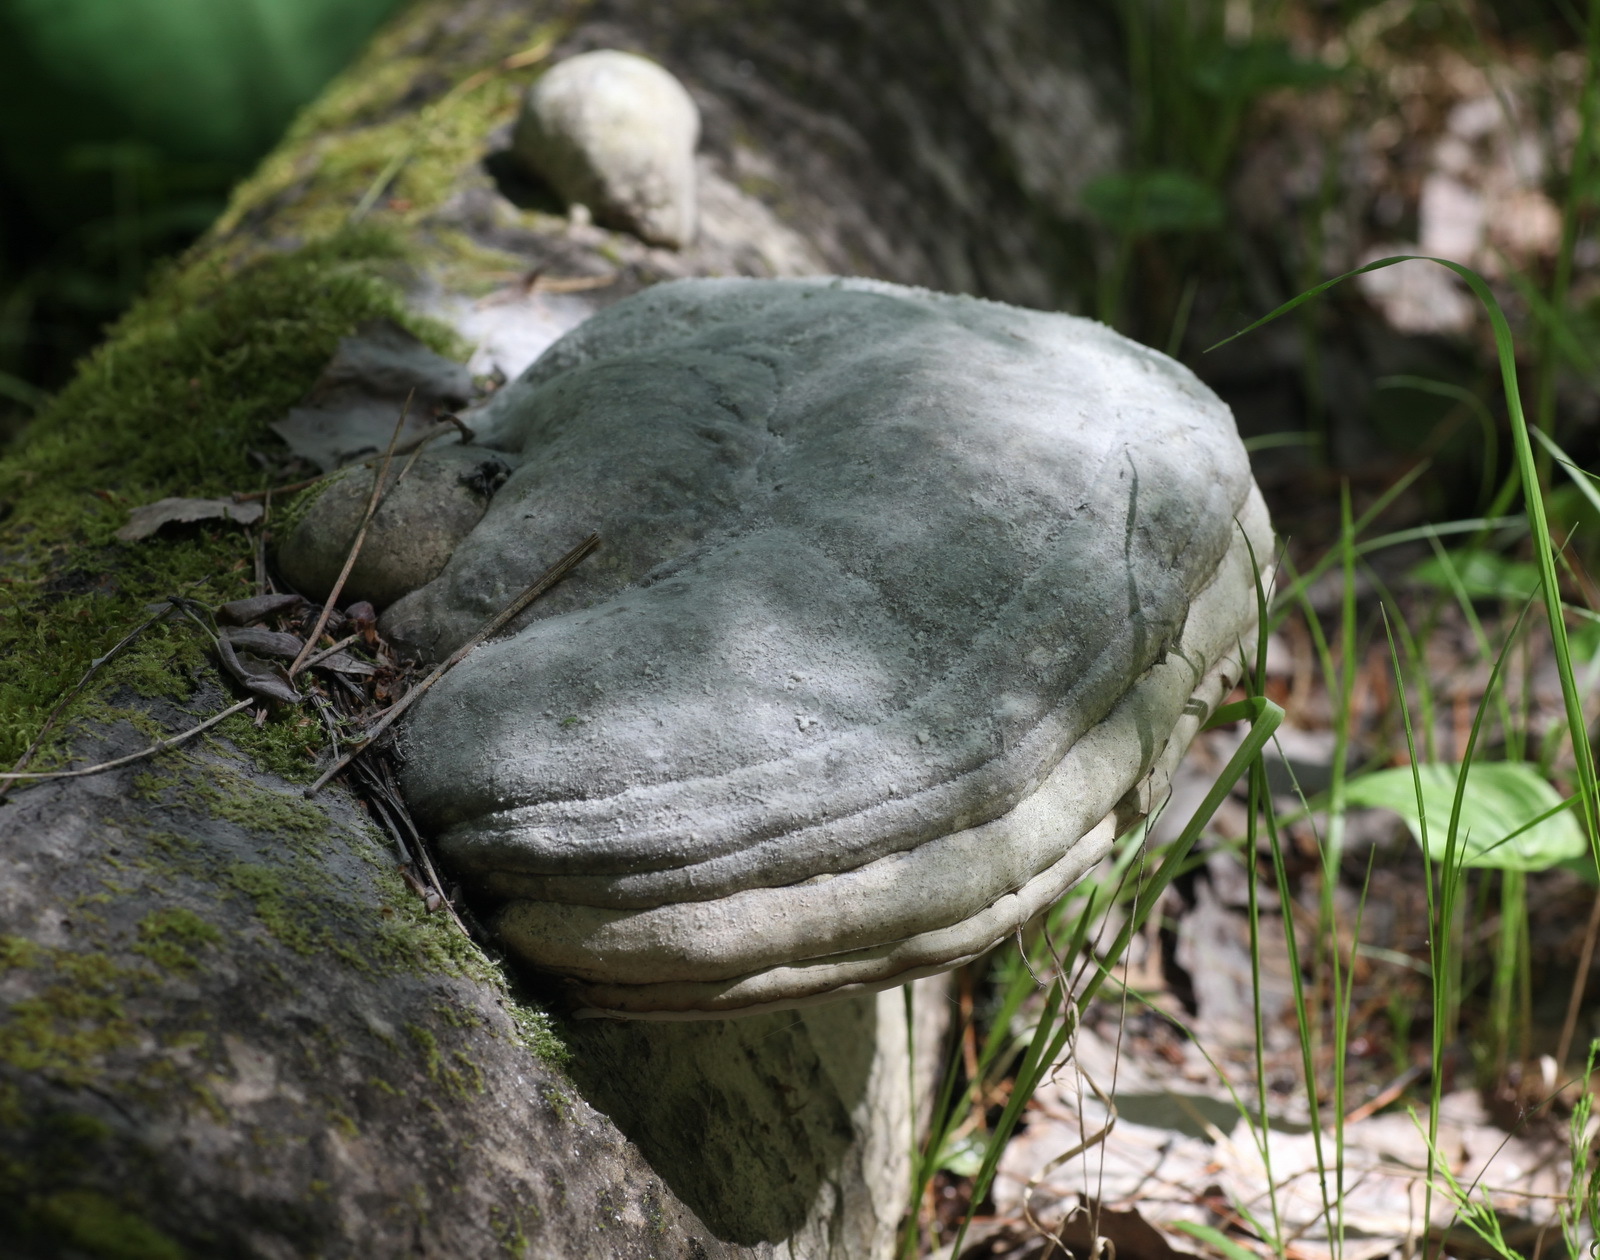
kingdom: Fungi
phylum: Basidiomycota
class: Agaricomycetes
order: Polyporales
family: Polyporaceae
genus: Fomes
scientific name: Fomes fomentarius
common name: Hoof fungus
